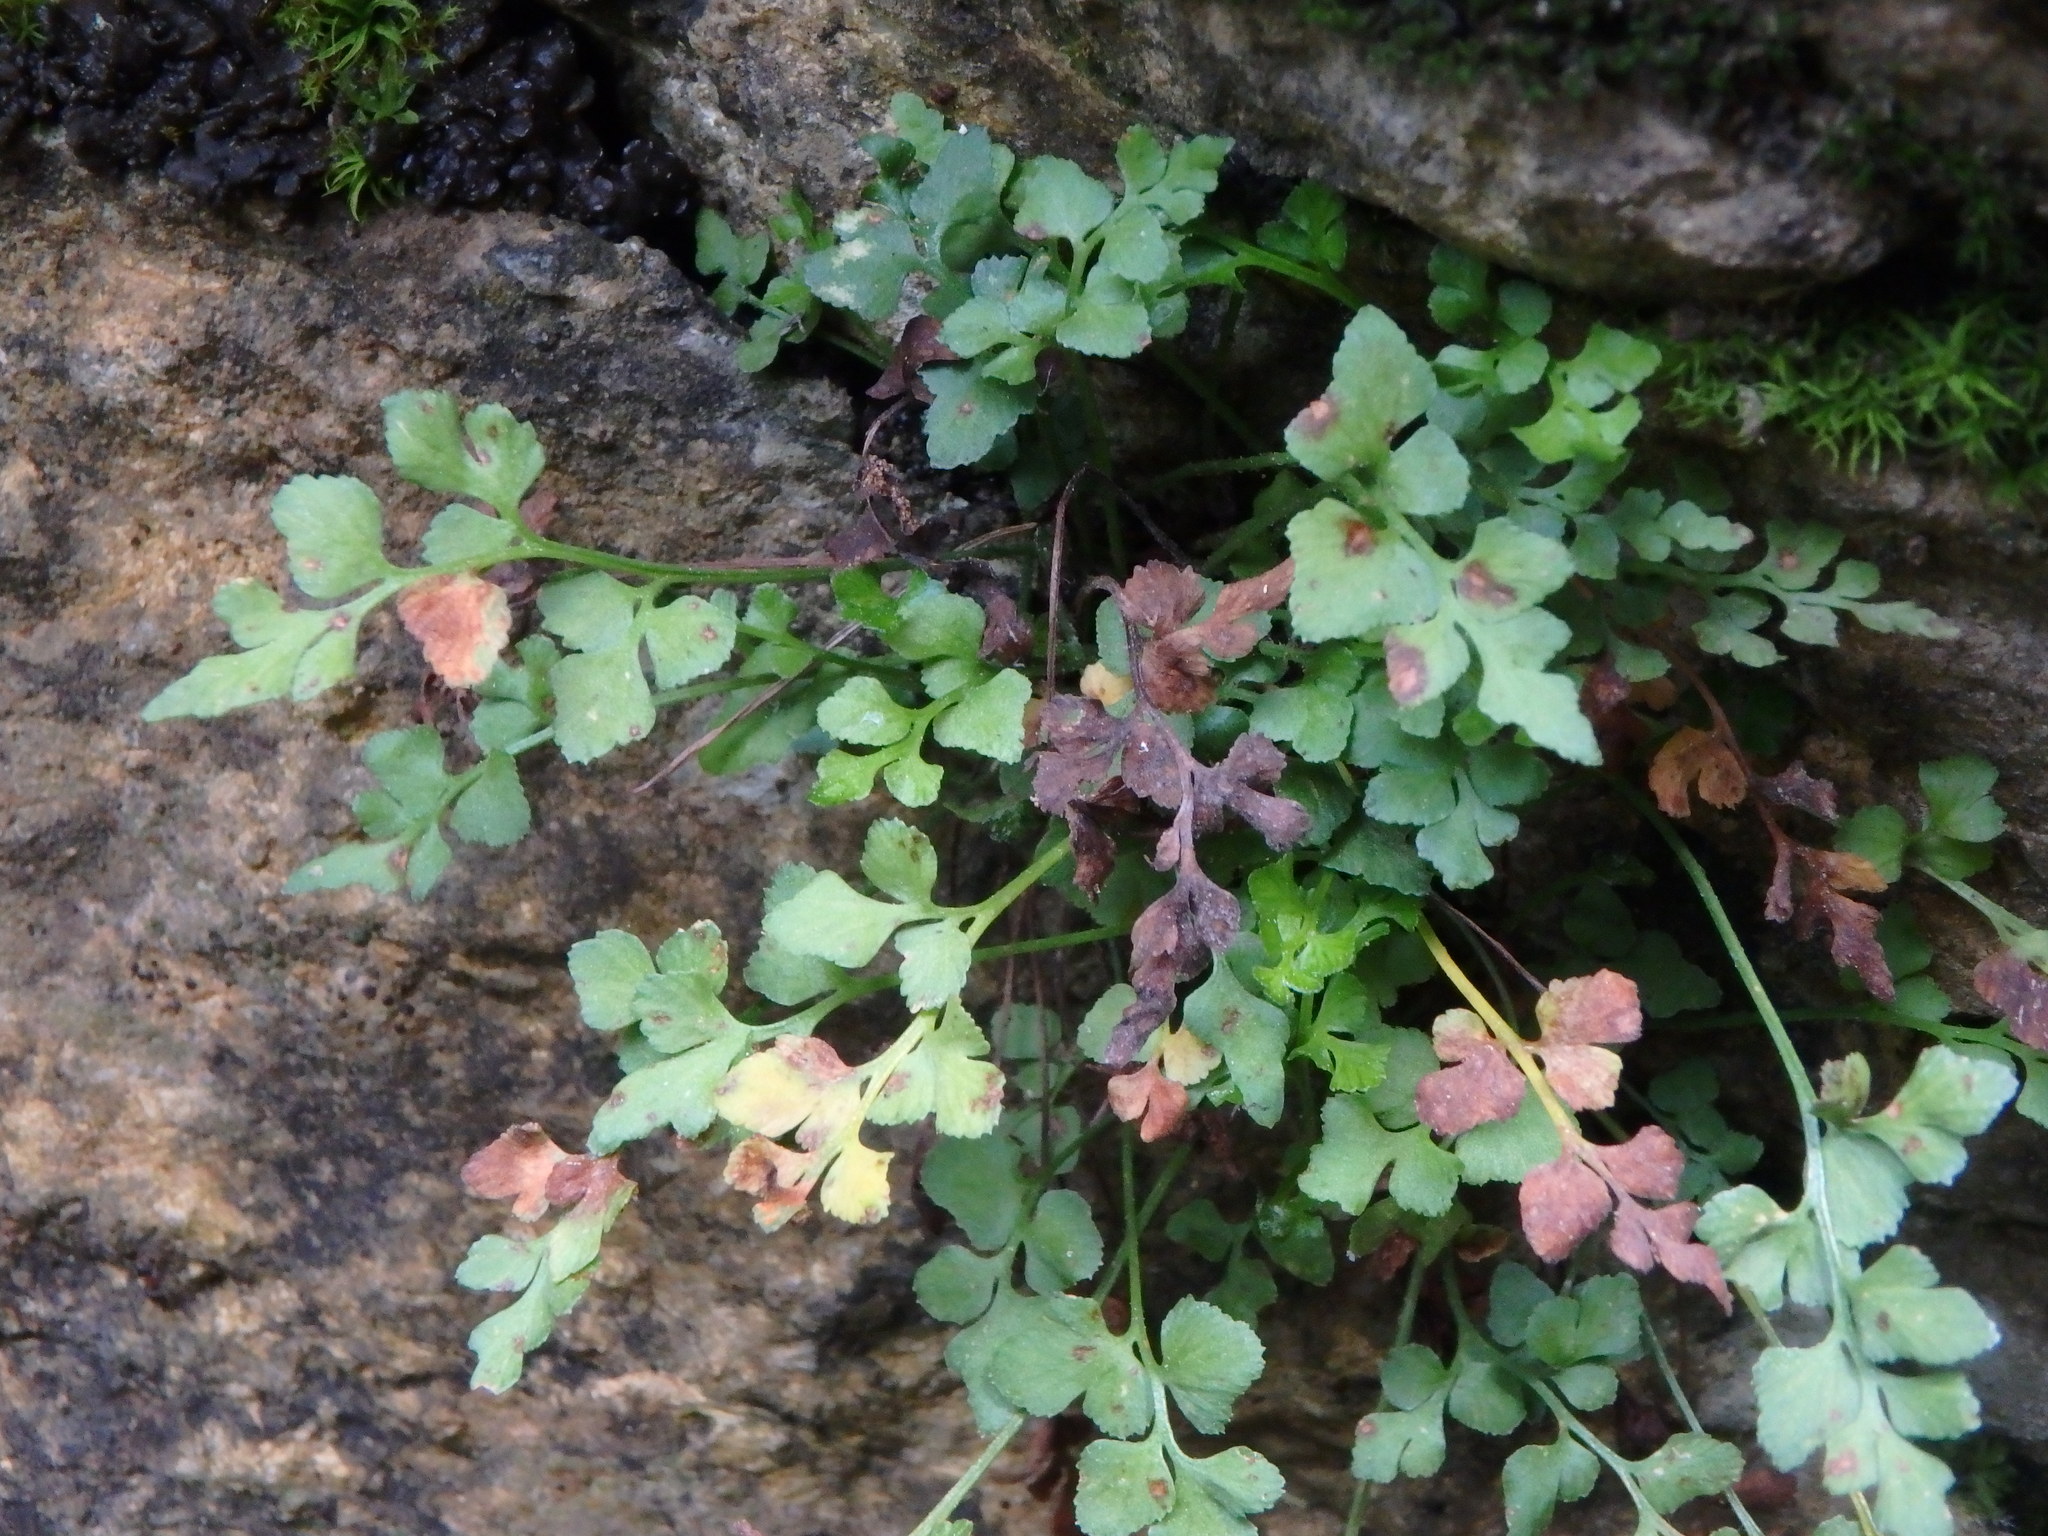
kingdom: Plantae
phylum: Tracheophyta
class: Polypodiopsida
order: Polypodiales
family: Aspleniaceae
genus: Asplenium
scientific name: Asplenium ruta-muraria
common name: Wall-rue
